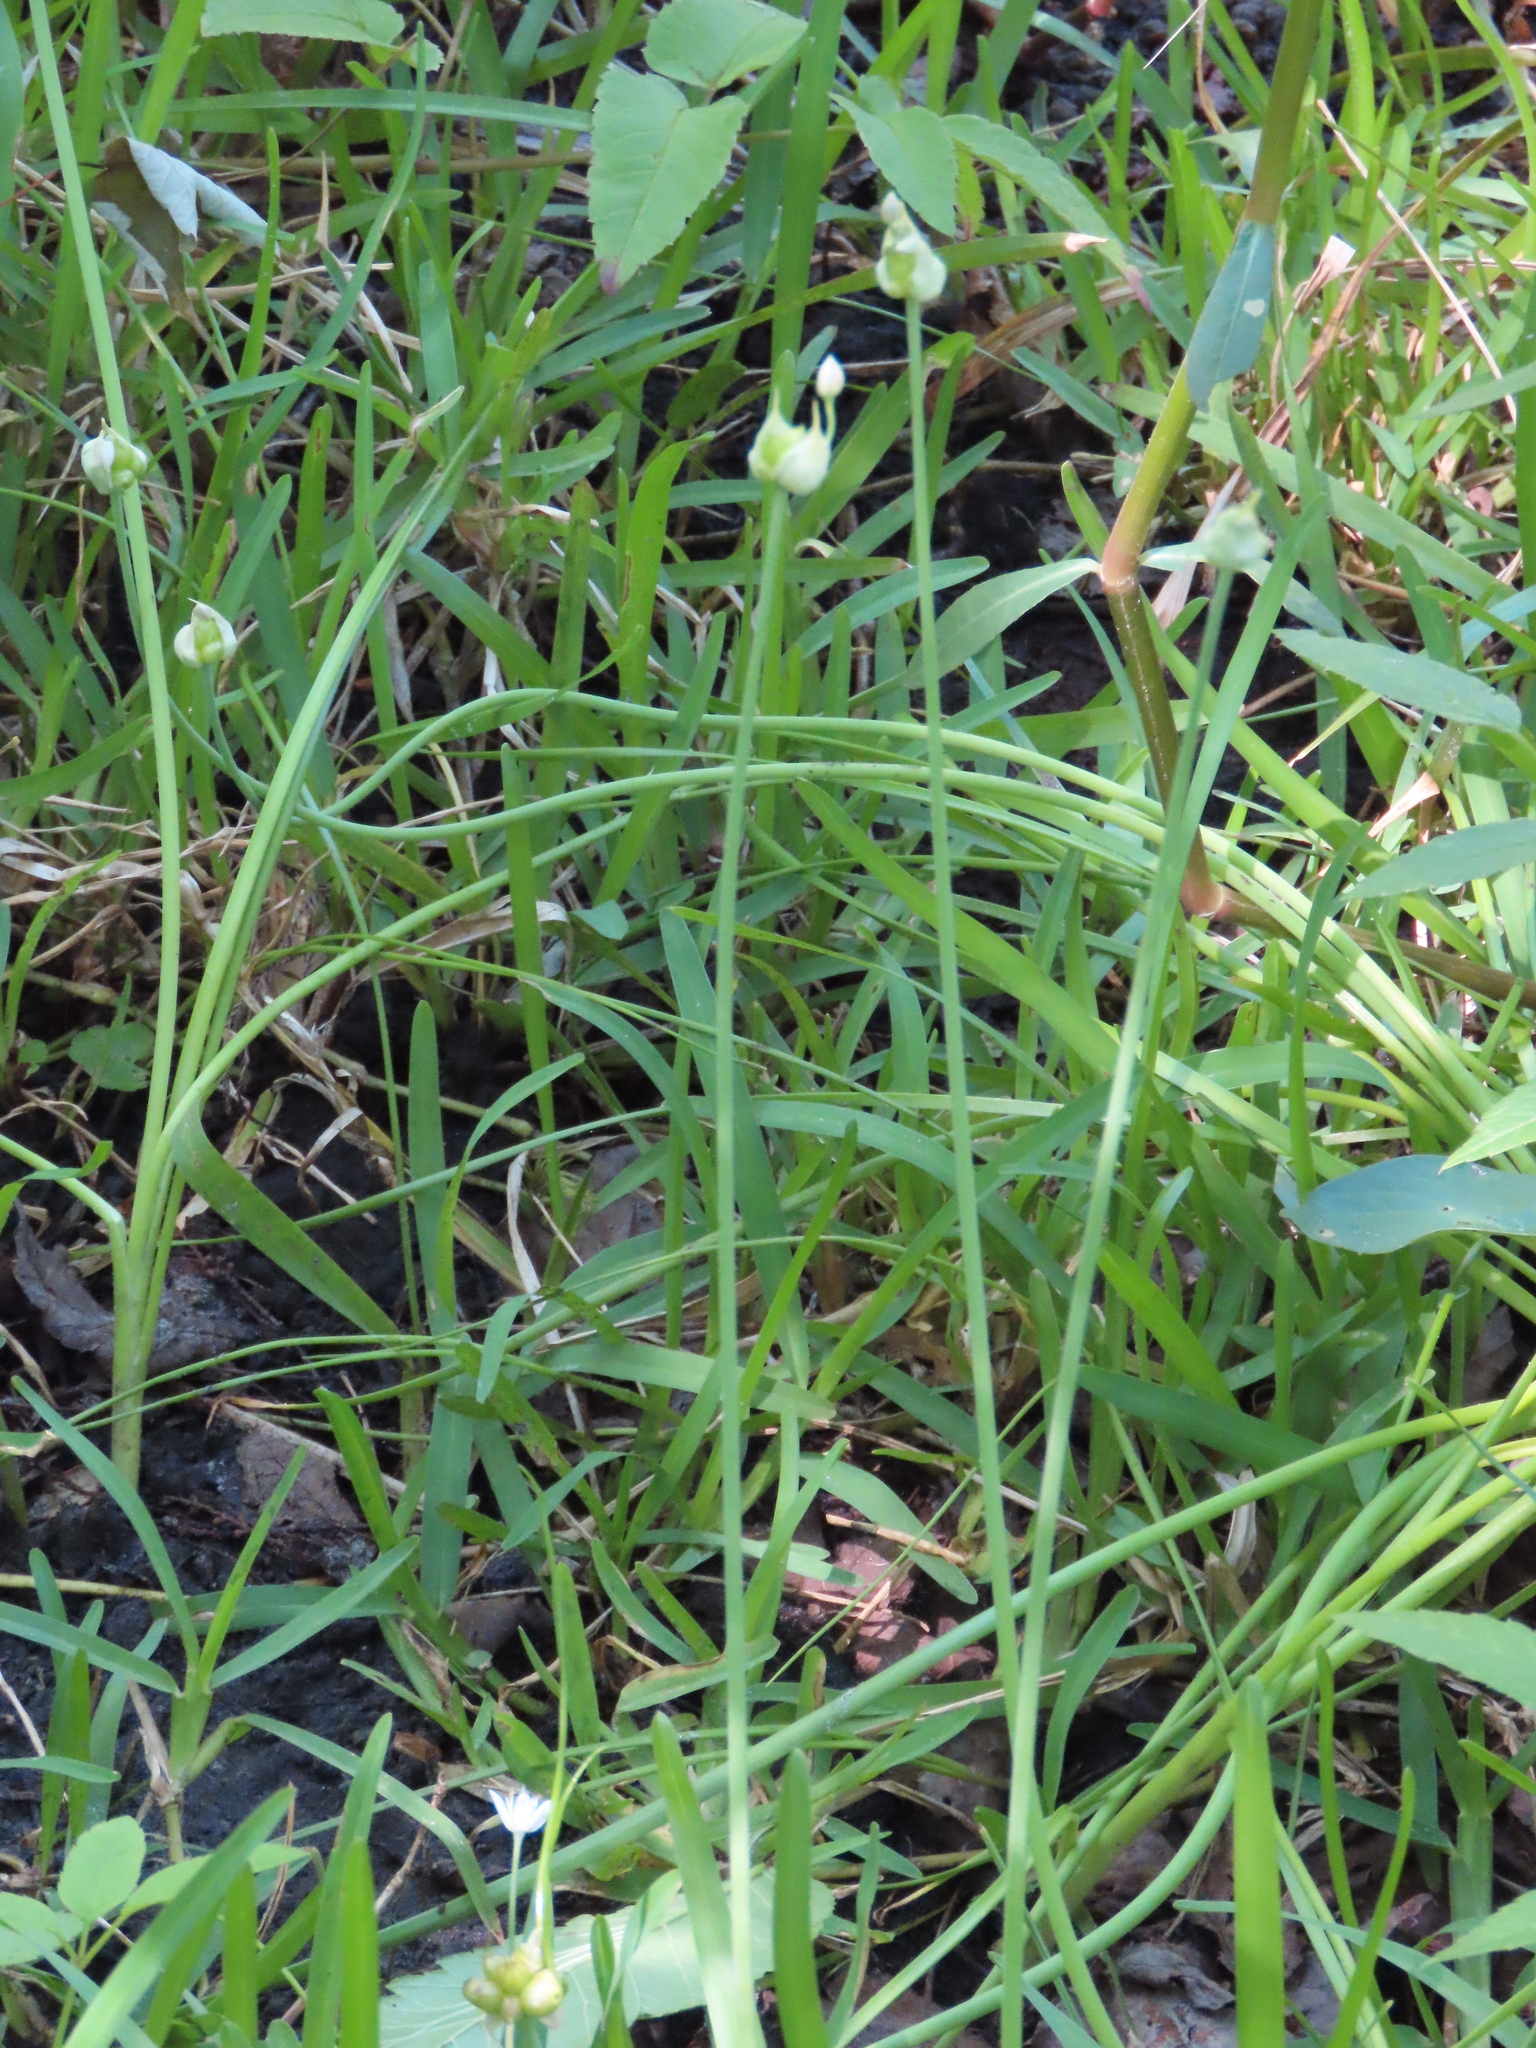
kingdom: Plantae
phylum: Tracheophyta
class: Liliopsida
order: Asparagales
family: Amaryllidaceae
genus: Allium
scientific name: Allium canadense
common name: Meadow garlic
